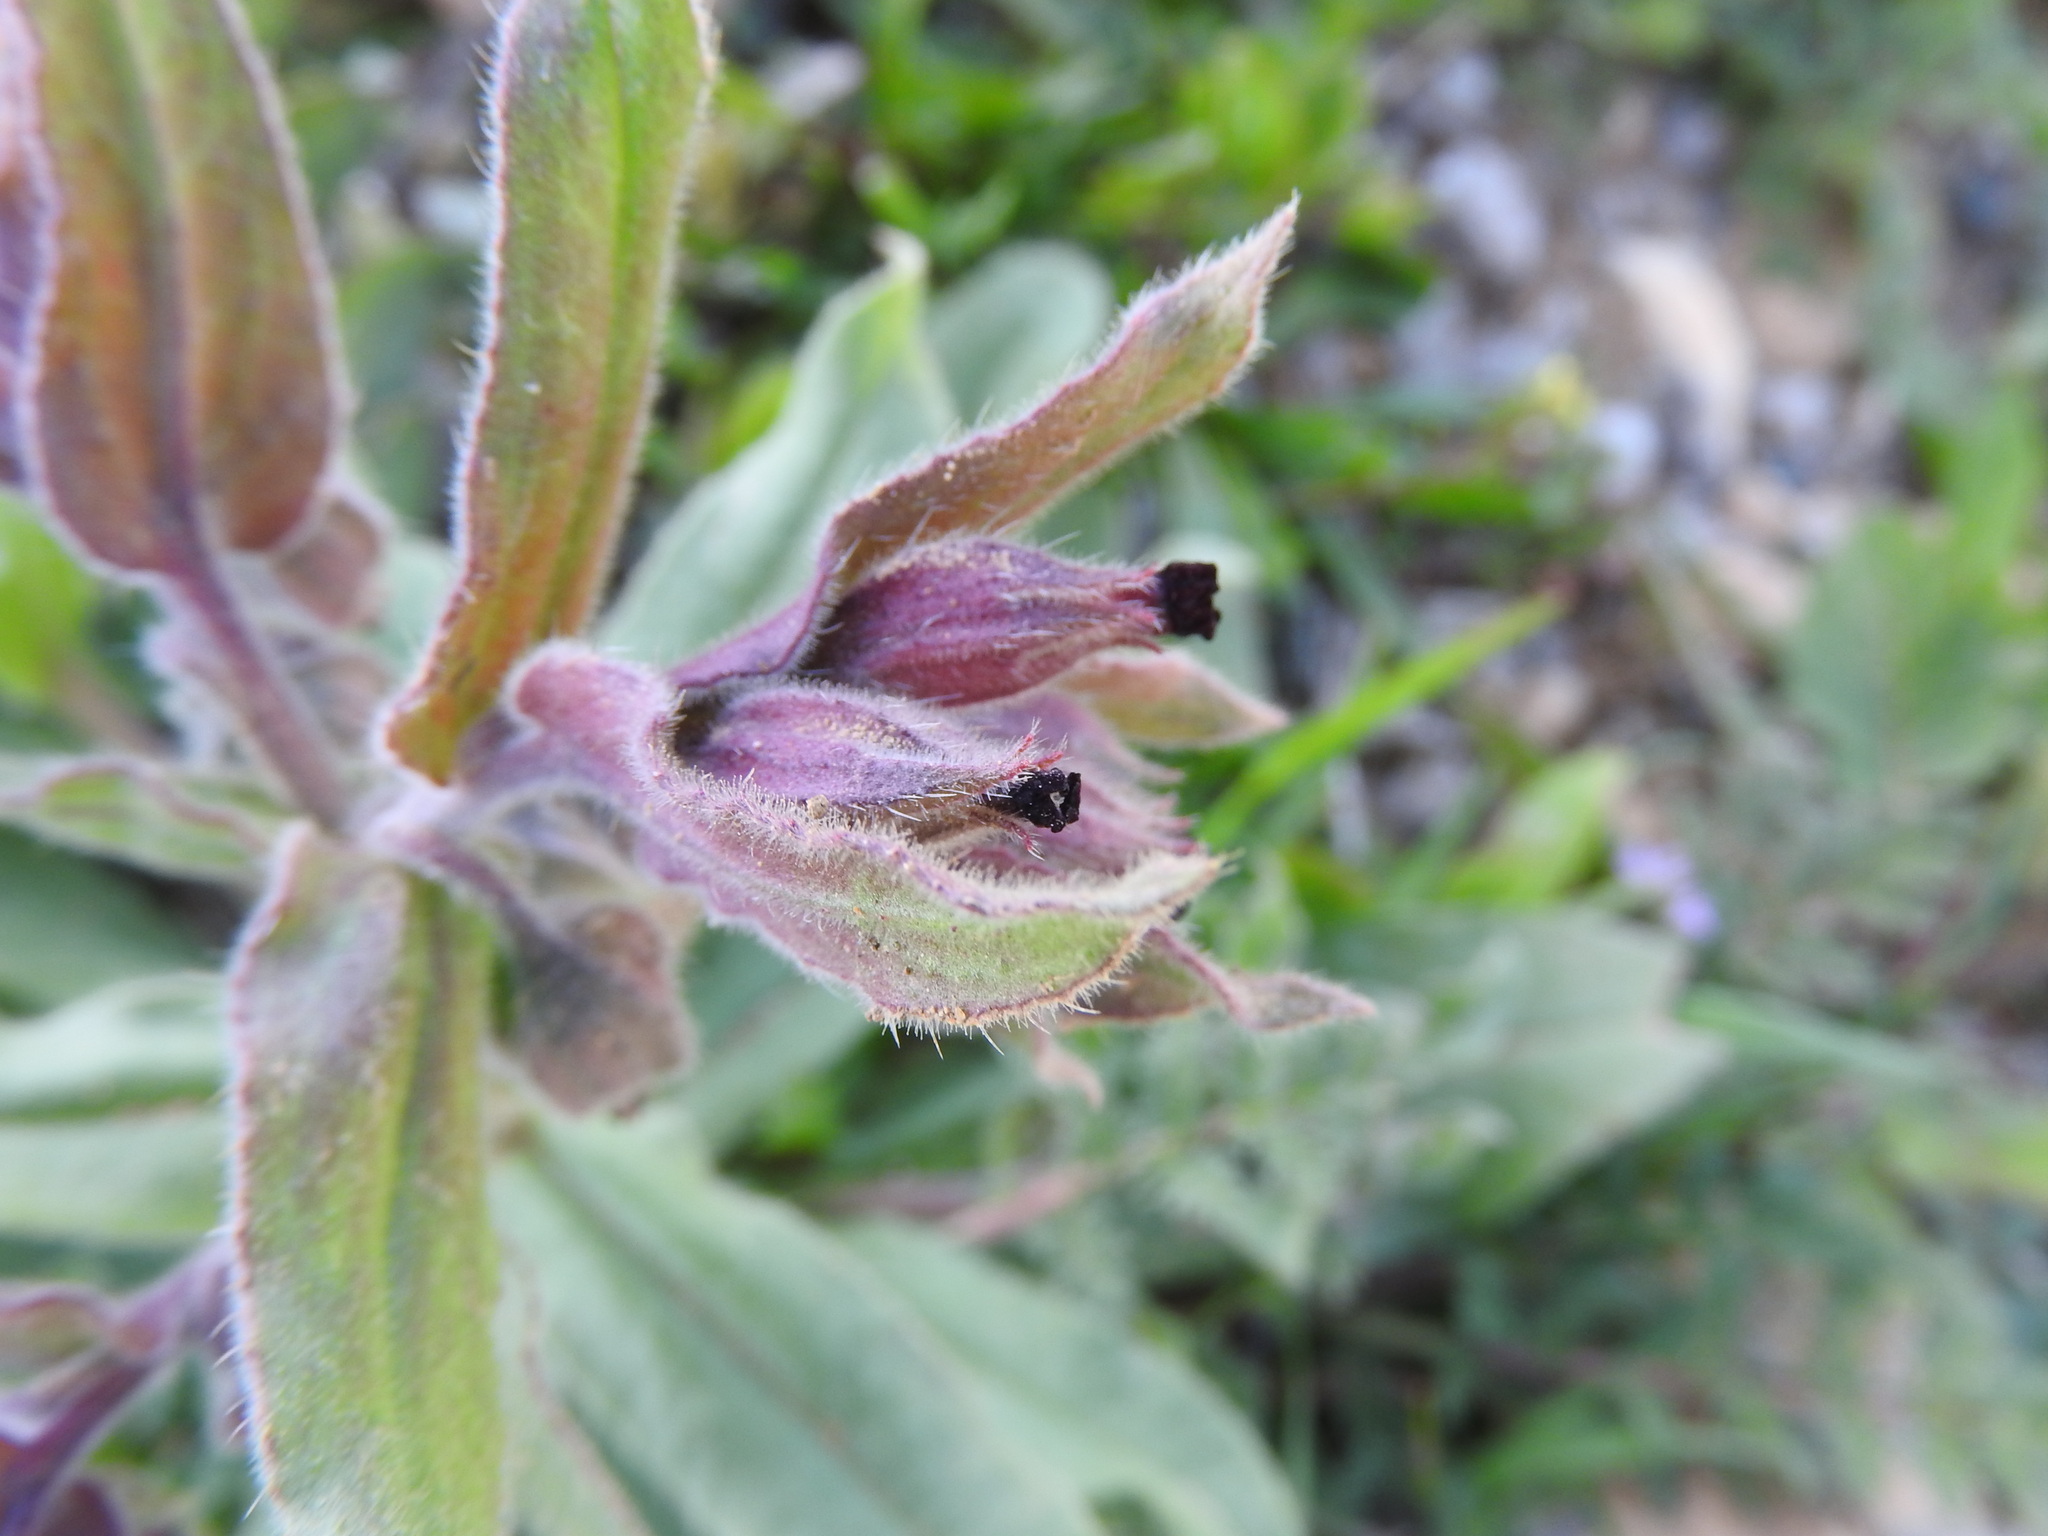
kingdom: Plantae
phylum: Tracheophyta
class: Magnoliopsida
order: Boraginales
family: Boraginaceae
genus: Nonea
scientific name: Nonea vesicaria
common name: Red monkswort
